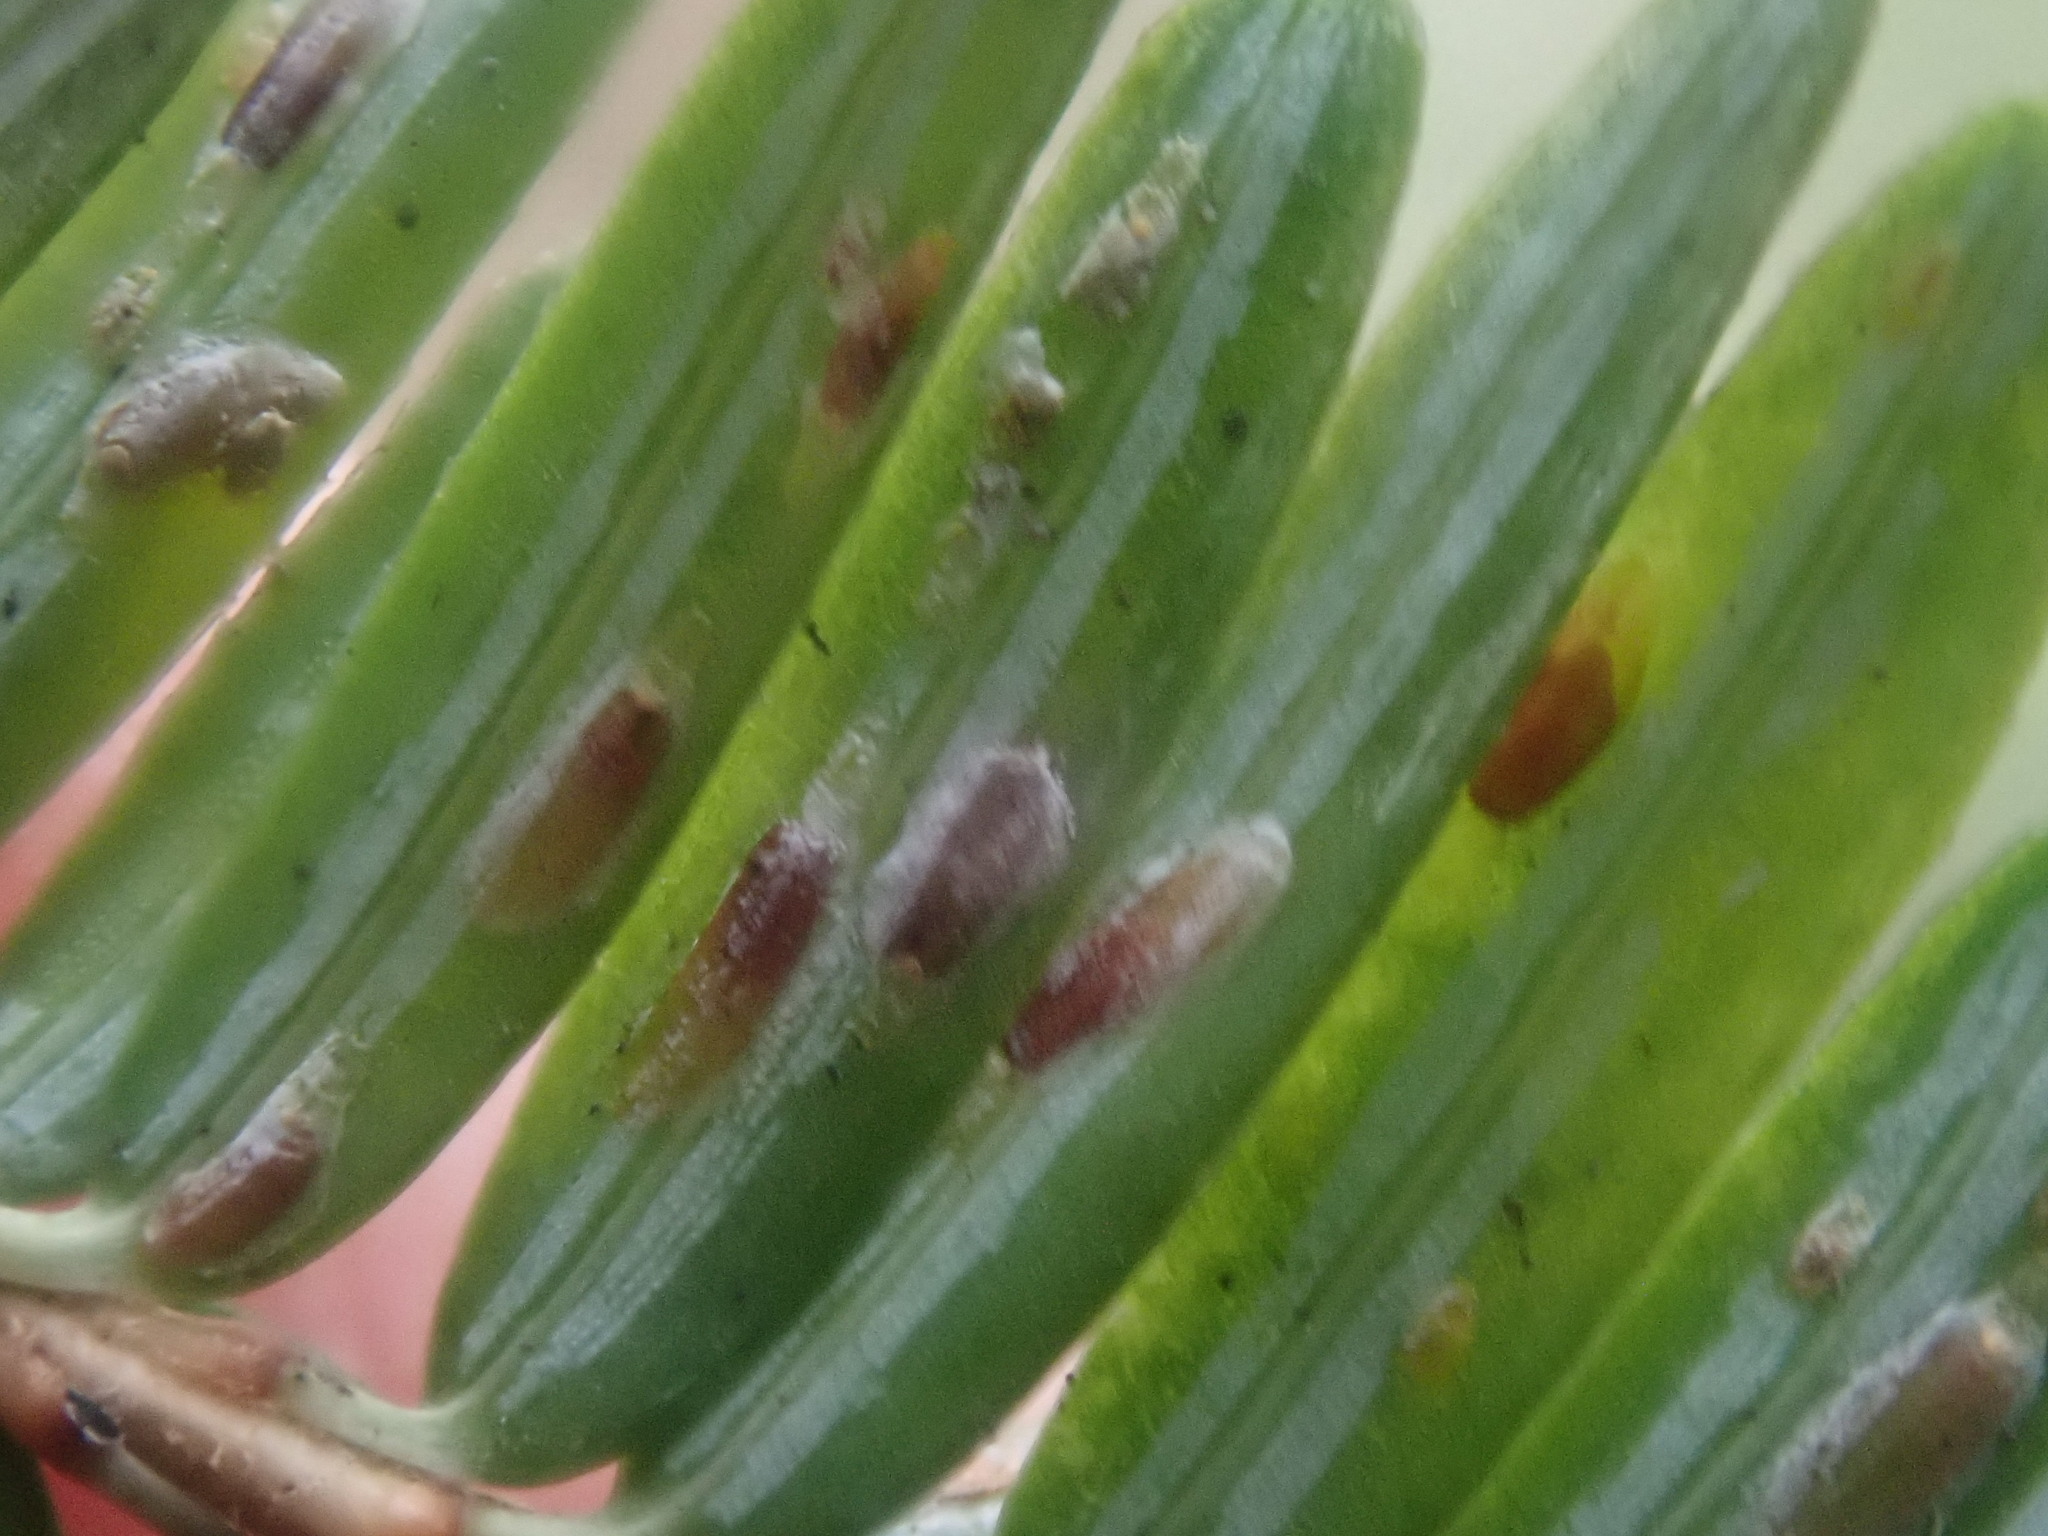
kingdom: Animalia
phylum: Arthropoda
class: Insecta
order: Hemiptera
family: Diaspididae
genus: Fiorinia
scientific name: Fiorinia externa
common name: Elongate hemlock scale
